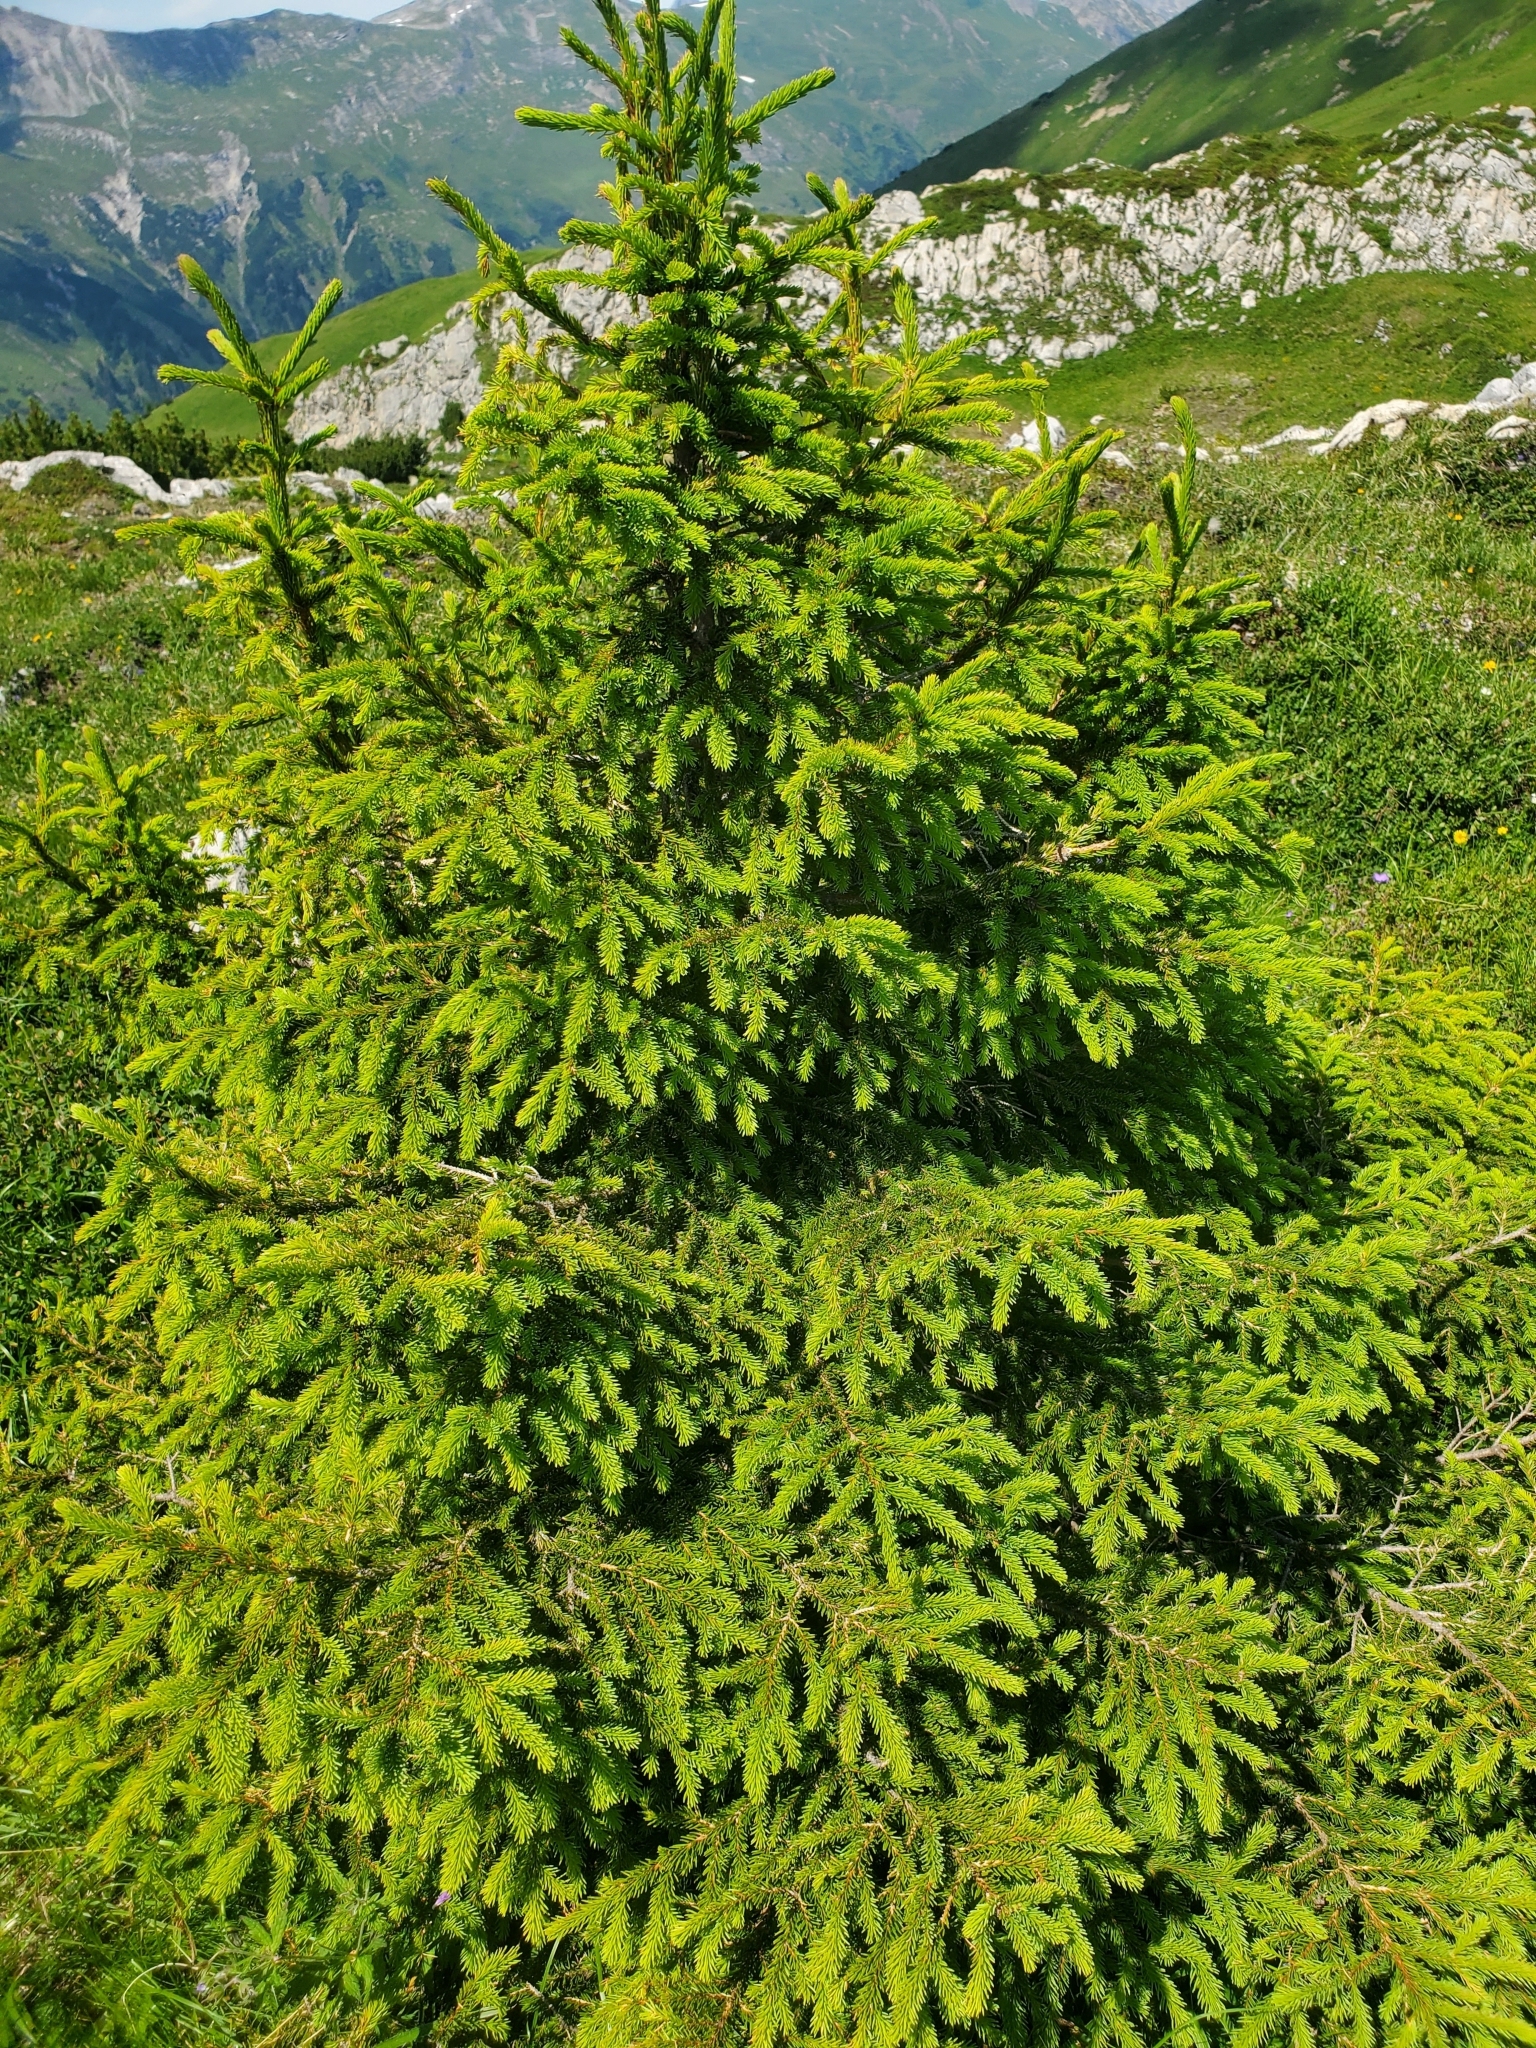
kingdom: Plantae
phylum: Tracheophyta
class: Pinopsida
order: Pinales
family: Pinaceae
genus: Picea
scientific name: Picea abies
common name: Norway spruce
